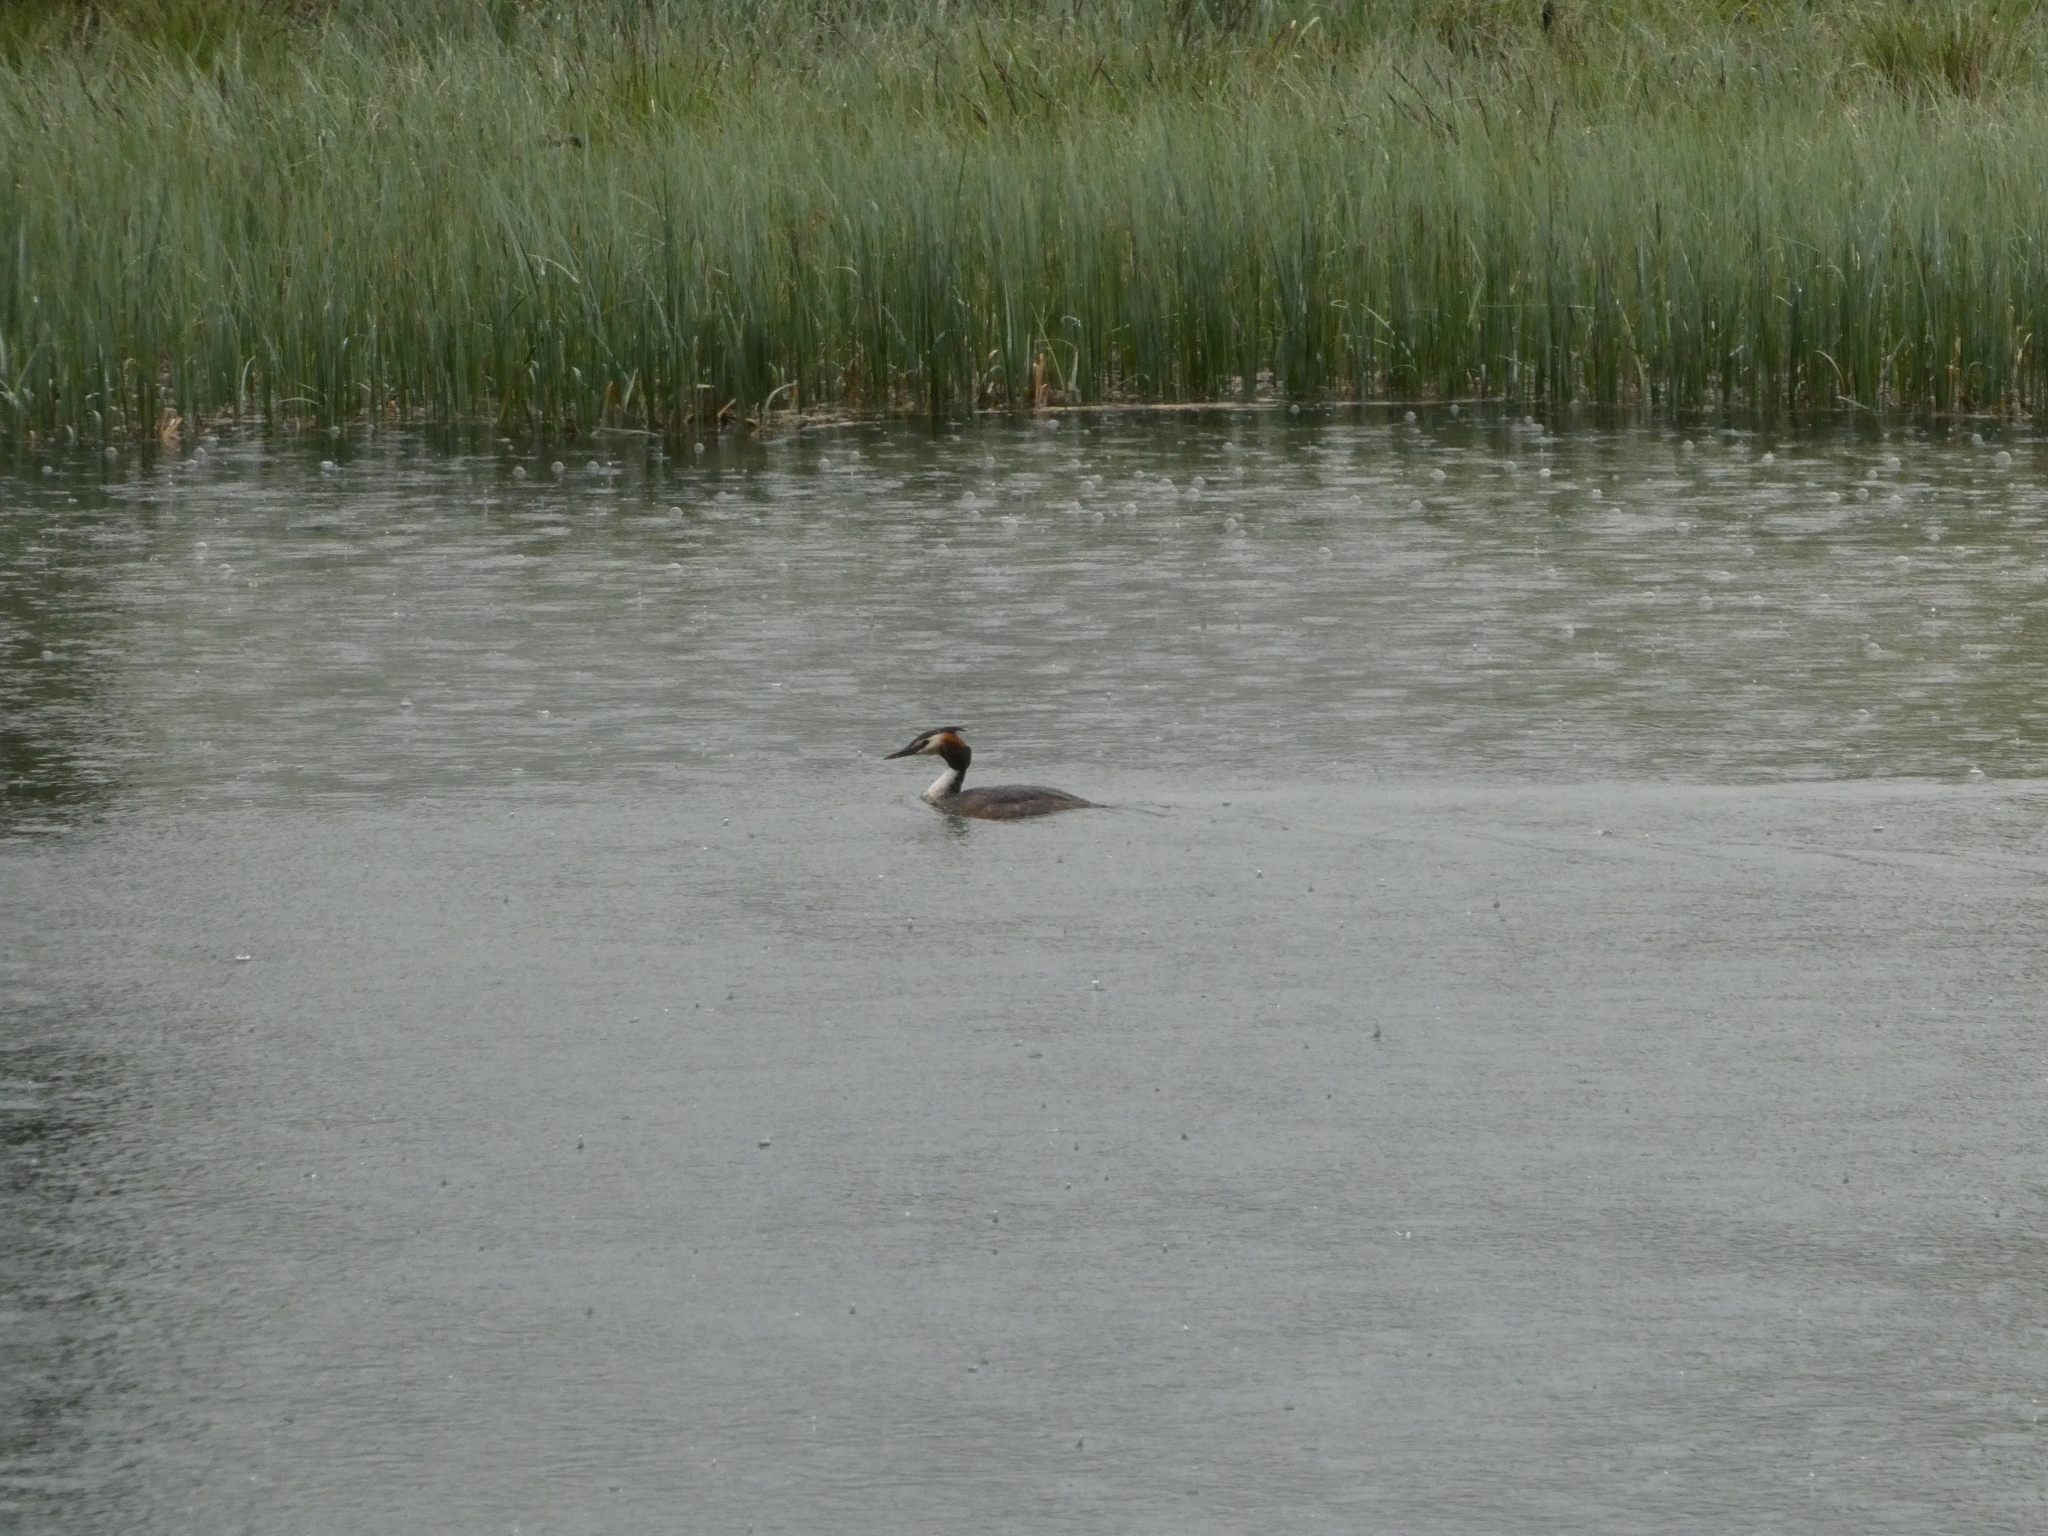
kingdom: Animalia
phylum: Chordata
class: Aves
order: Podicipediformes
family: Podicipedidae
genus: Podiceps
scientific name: Podiceps cristatus
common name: Great crested grebe
